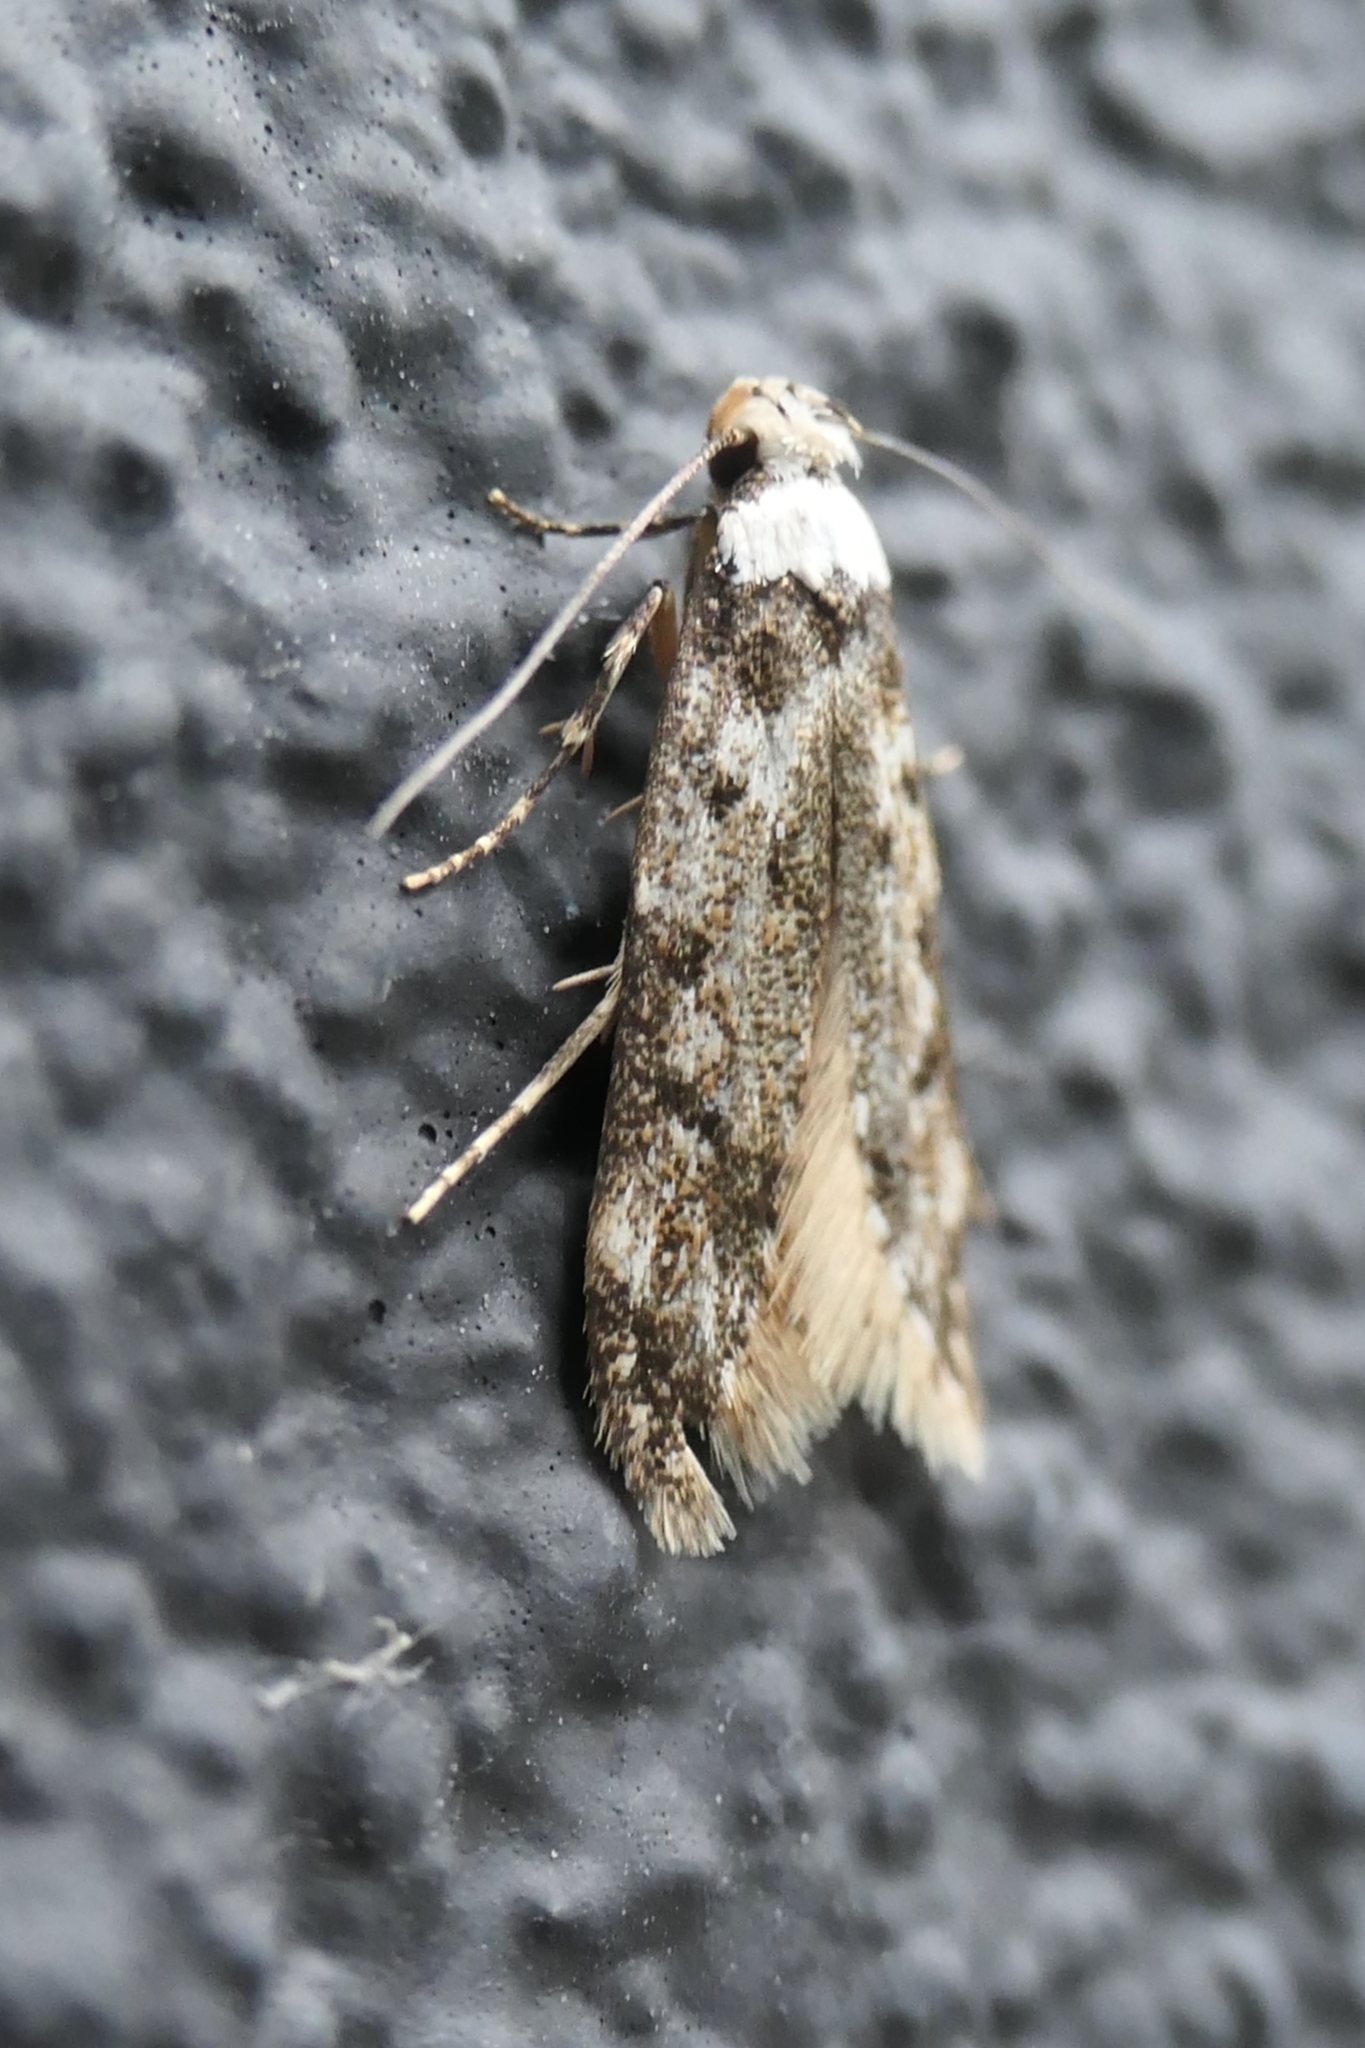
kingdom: Animalia
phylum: Arthropoda
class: Insecta
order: Lepidoptera
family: Oecophoridae
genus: Endrosis
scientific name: Endrosis sarcitrella
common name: White-shouldered house moth
